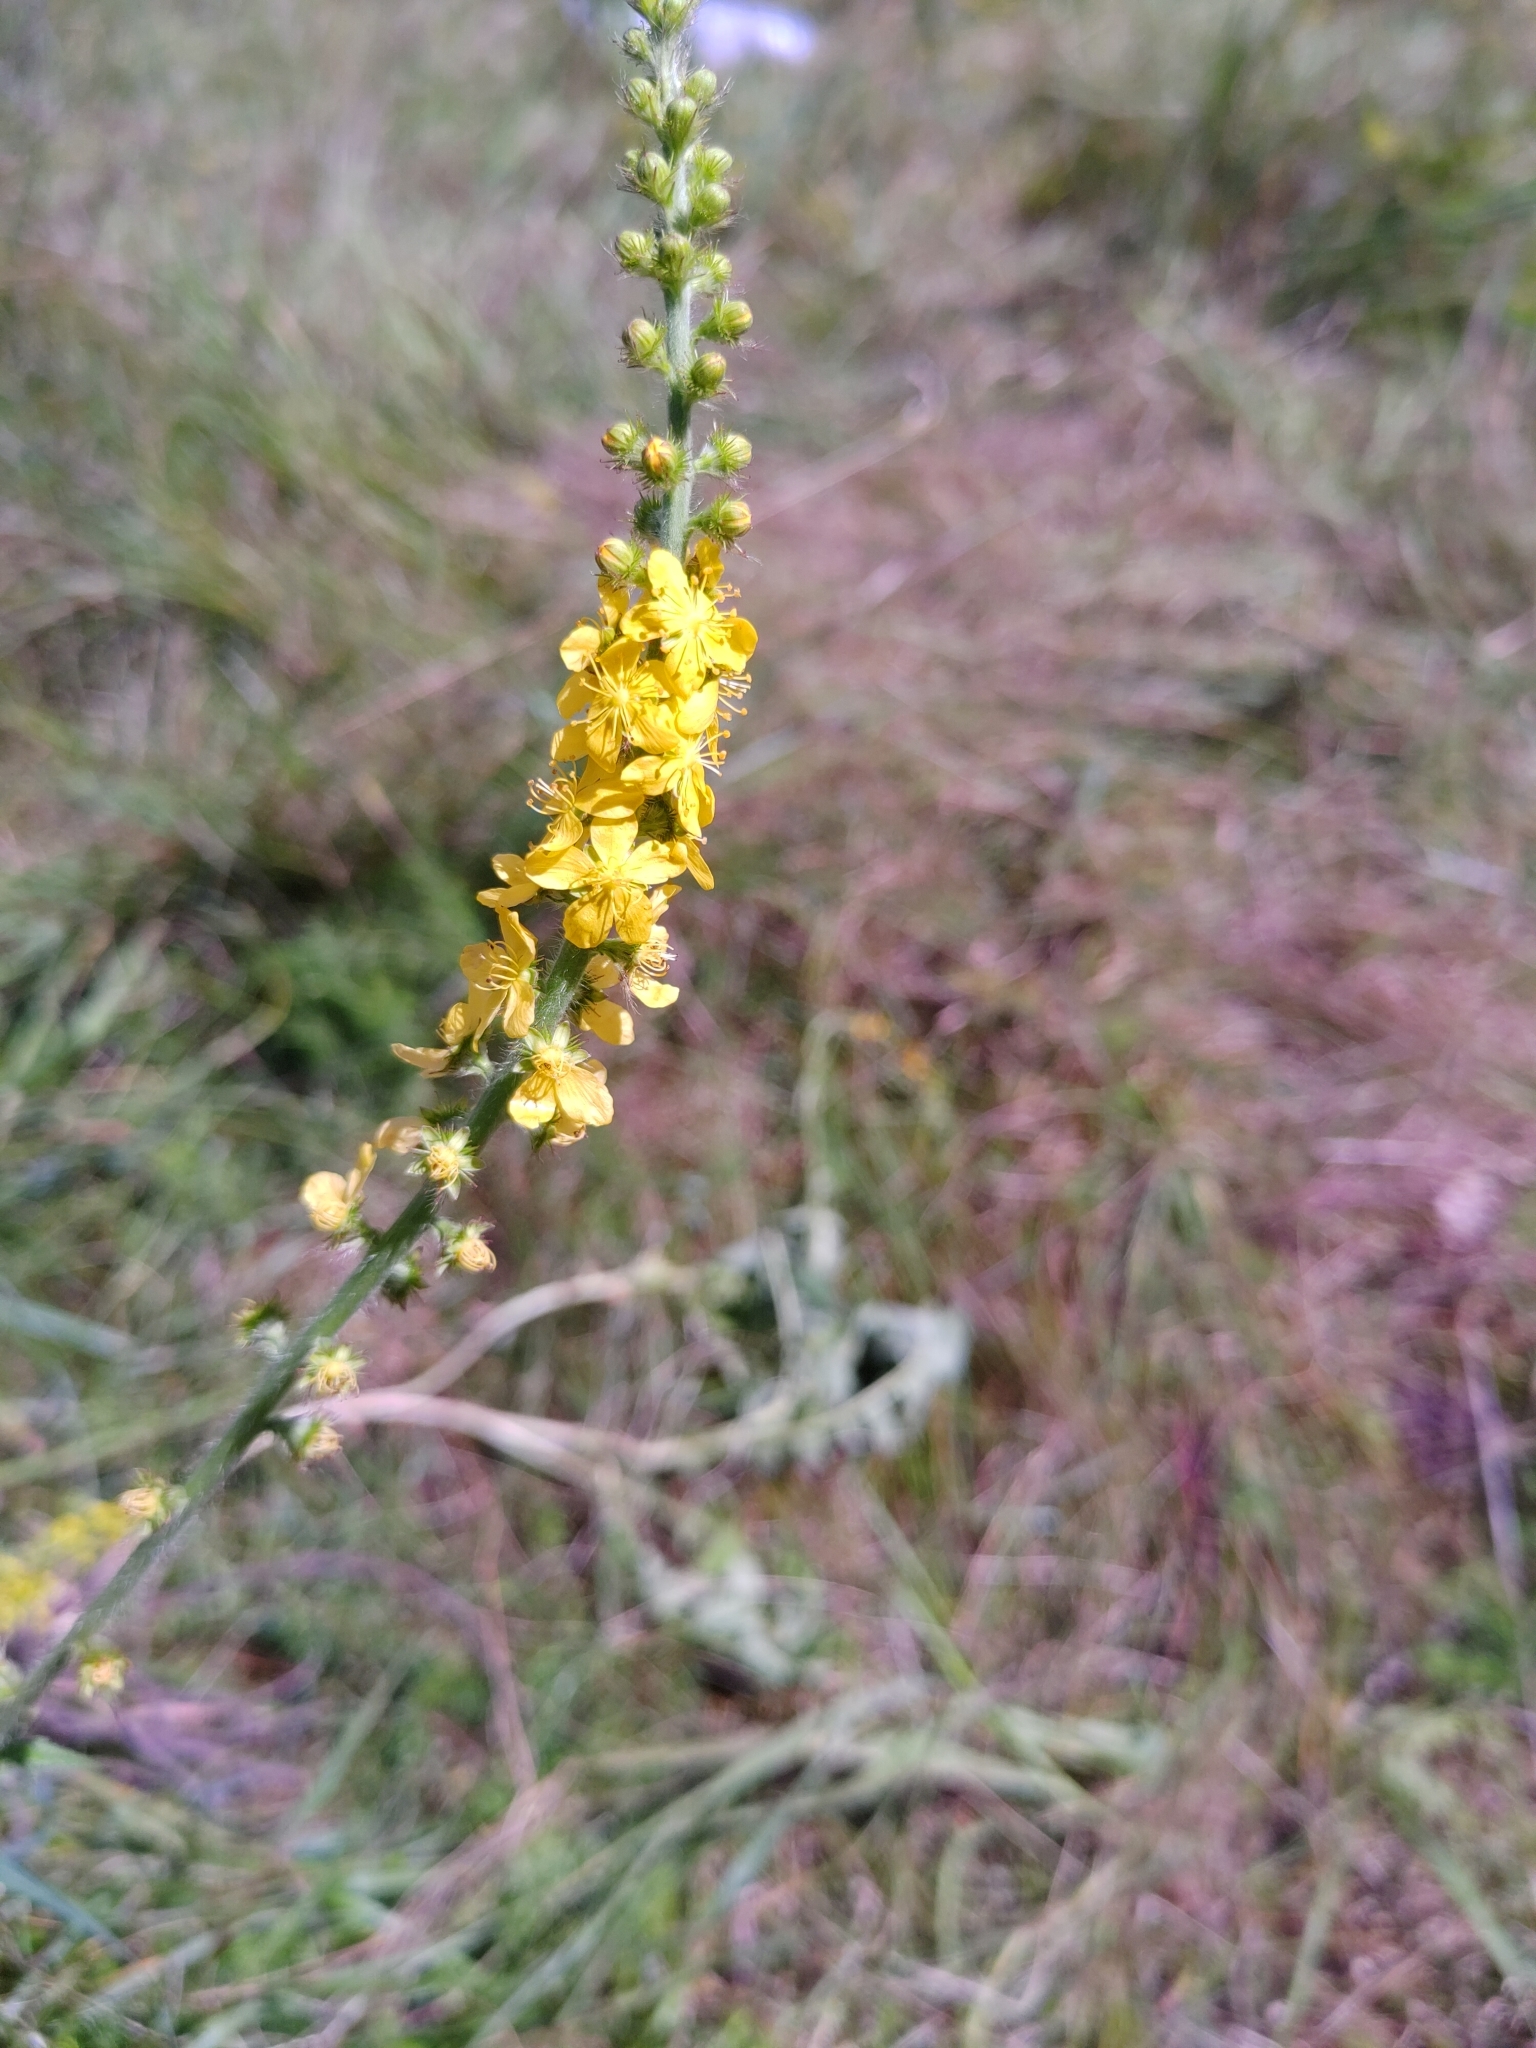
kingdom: Plantae
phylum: Tracheophyta
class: Magnoliopsida
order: Rosales
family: Rosaceae
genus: Agrimonia
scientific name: Agrimonia eupatoria
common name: Agrimony
